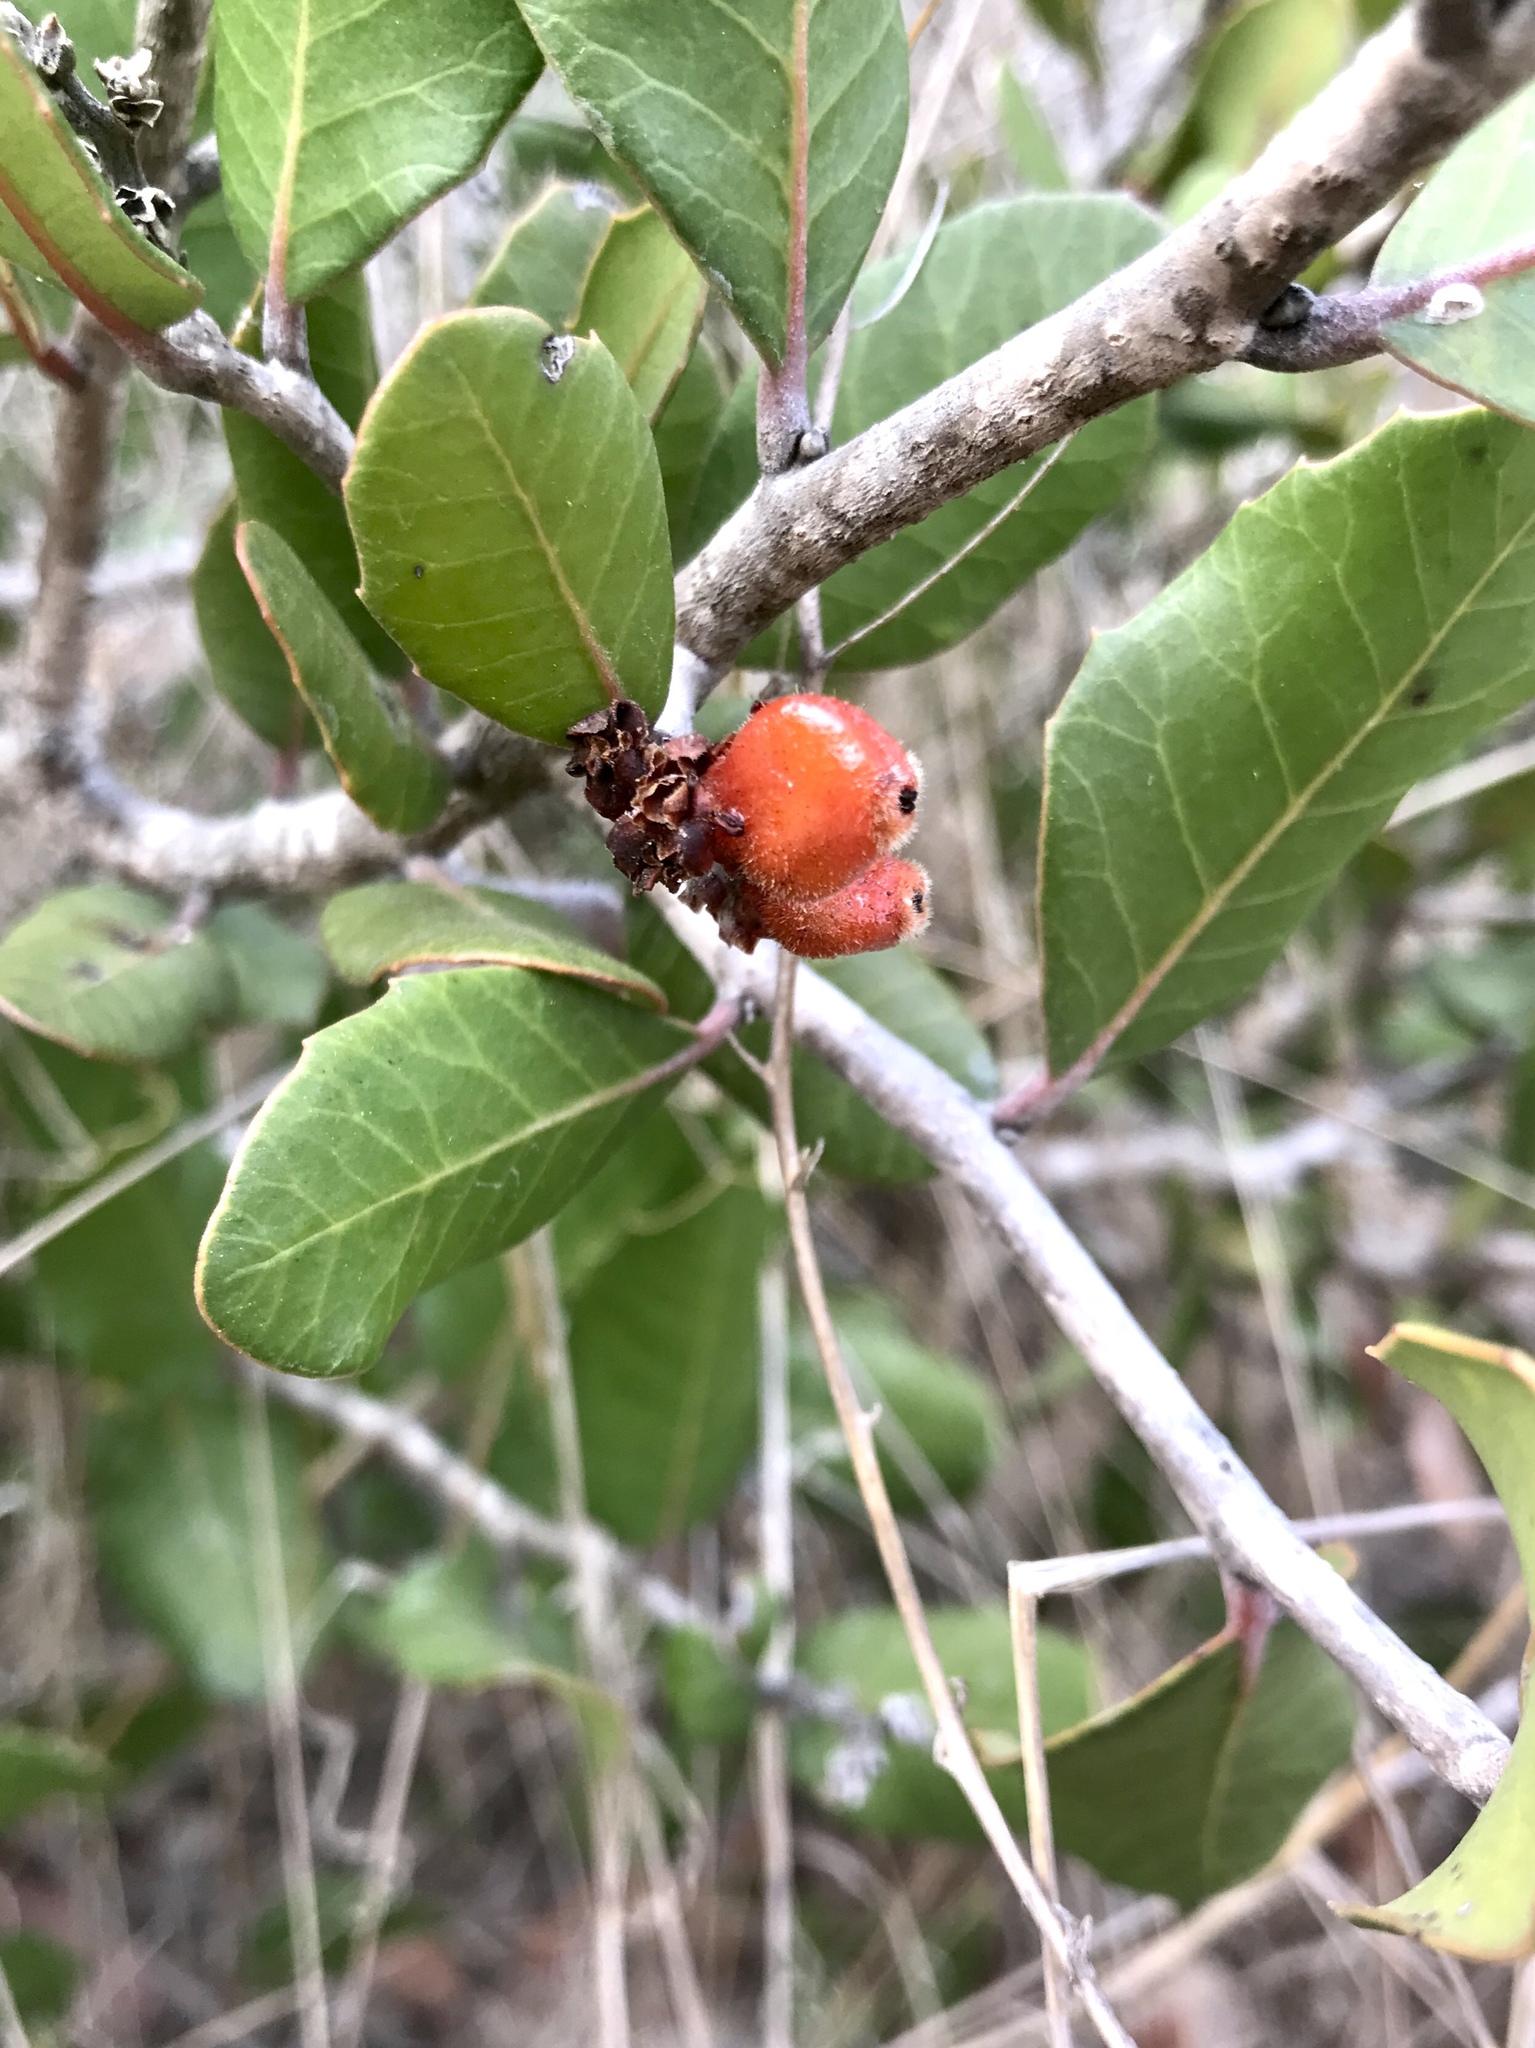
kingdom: Plantae
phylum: Tracheophyta
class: Magnoliopsida
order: Sapindales
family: Anacardiaceae
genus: Rhus
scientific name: Rhus integrifolia
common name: Lemonade sumac
